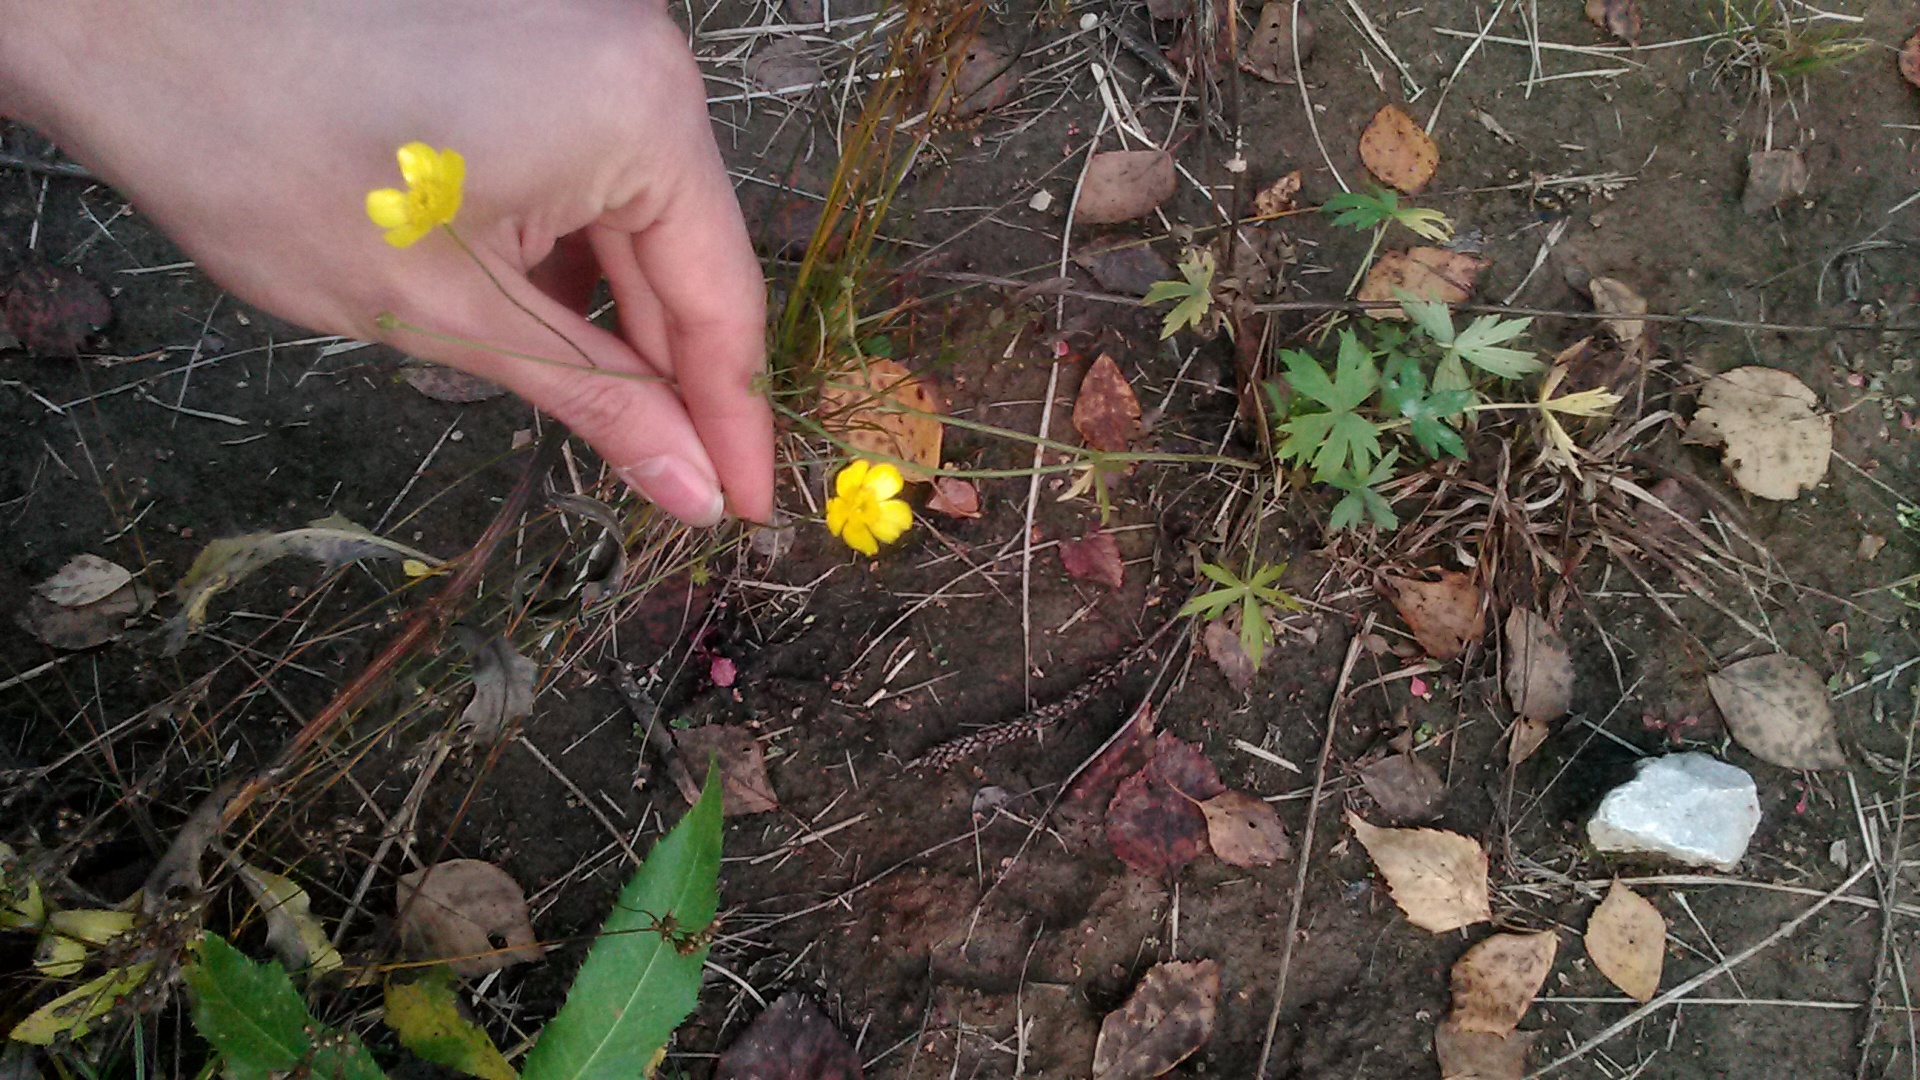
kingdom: Plantae
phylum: Tracheophyta
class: Magnoliopsida
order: Ranunculales
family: Ranunculaceae
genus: Ranunculus
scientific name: Ranunculus acris
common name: Meadow buttercup
